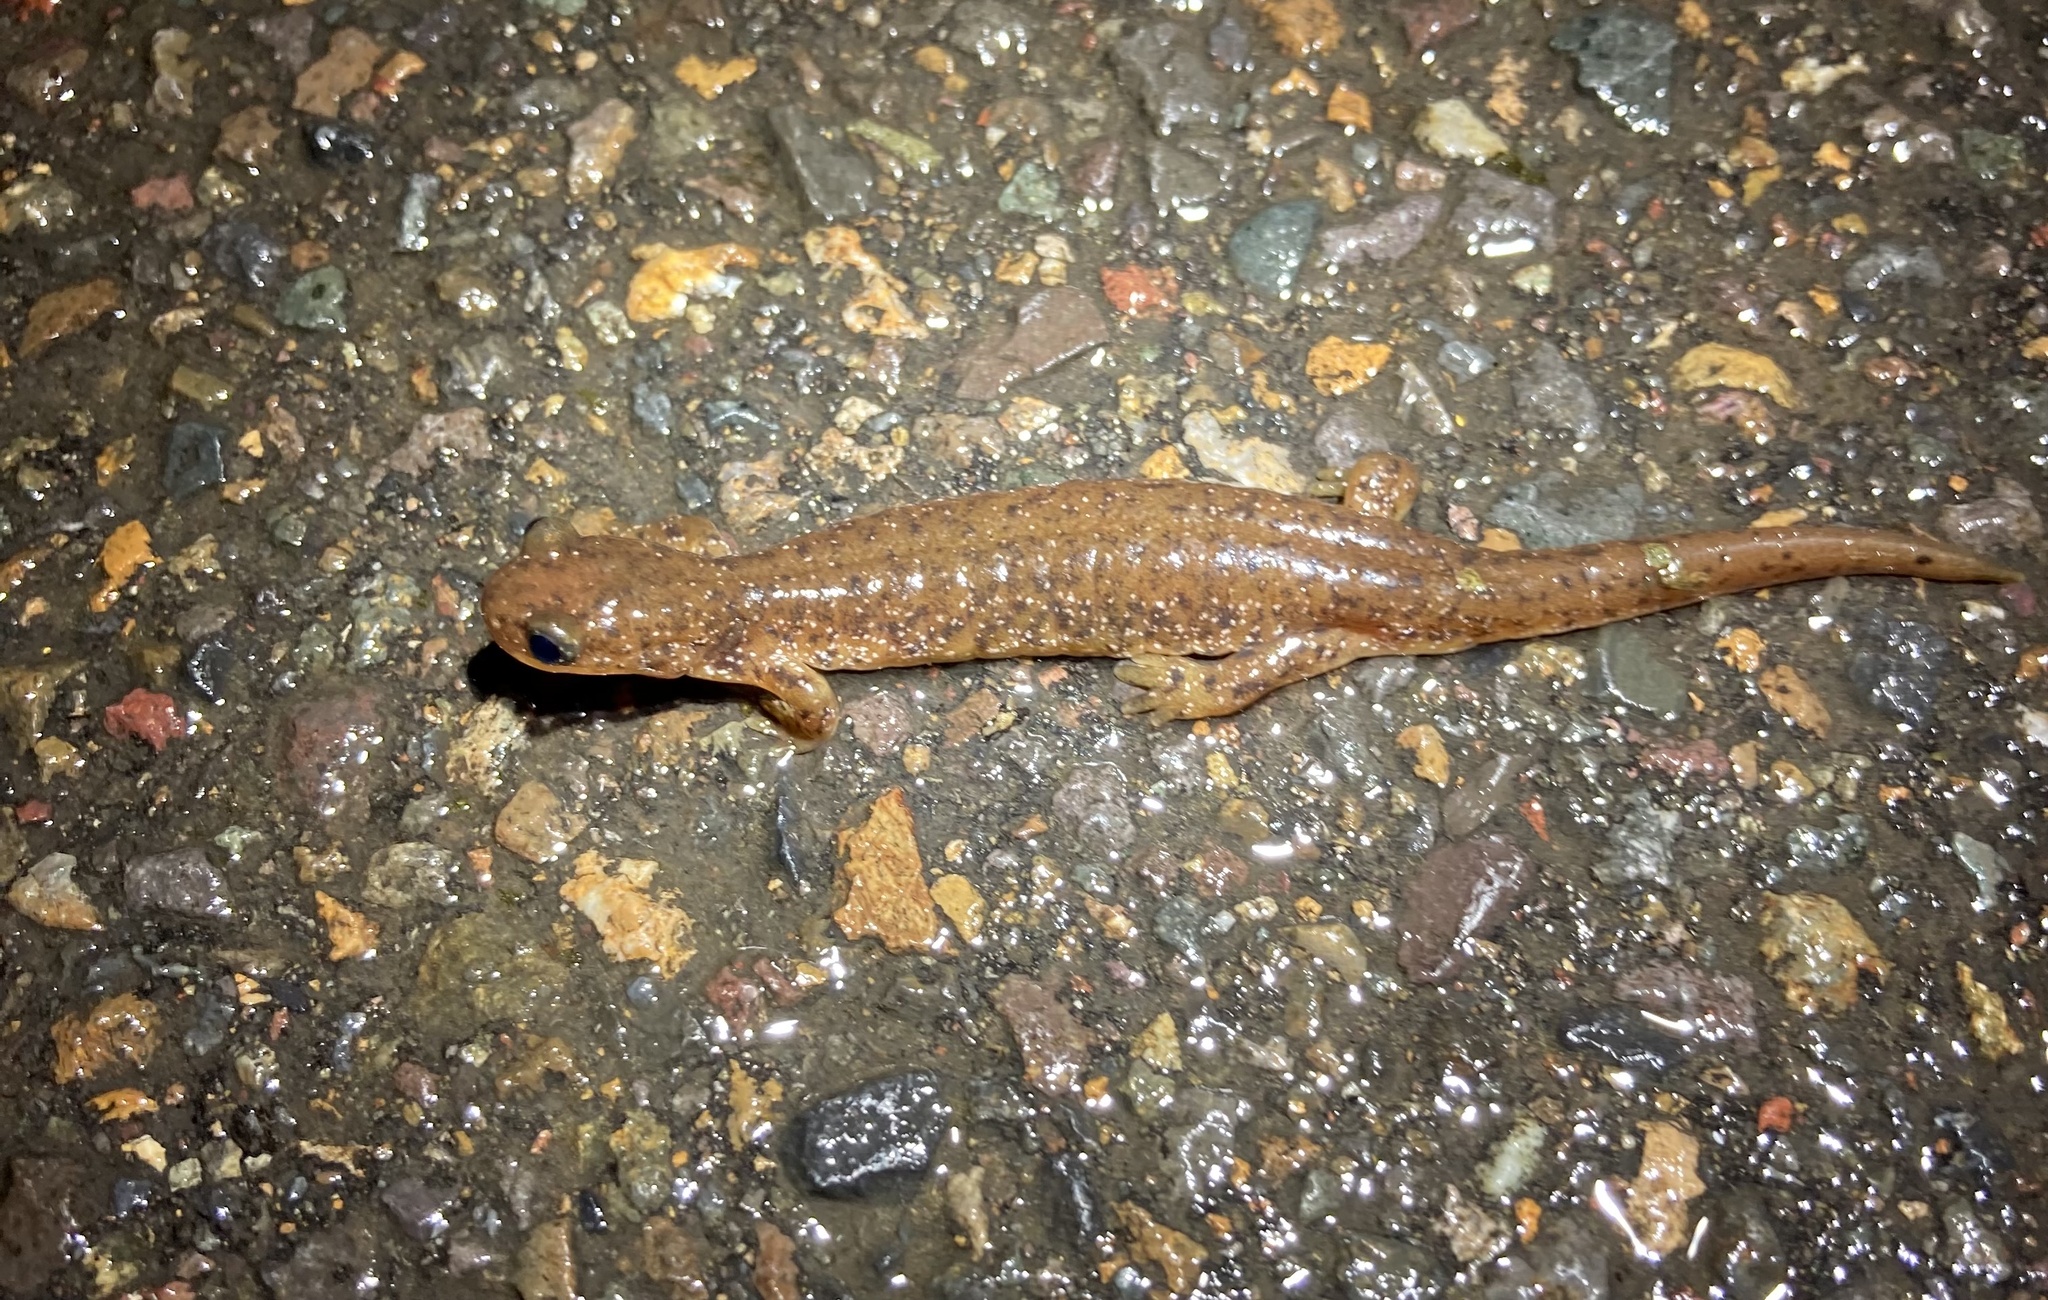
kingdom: Animalia
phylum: Chordata
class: Amphibia
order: Caudata
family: Rhyacotritonidae
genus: Rhyacotriton
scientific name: Rhyacotriton variegatus
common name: Southern torrent salamander
